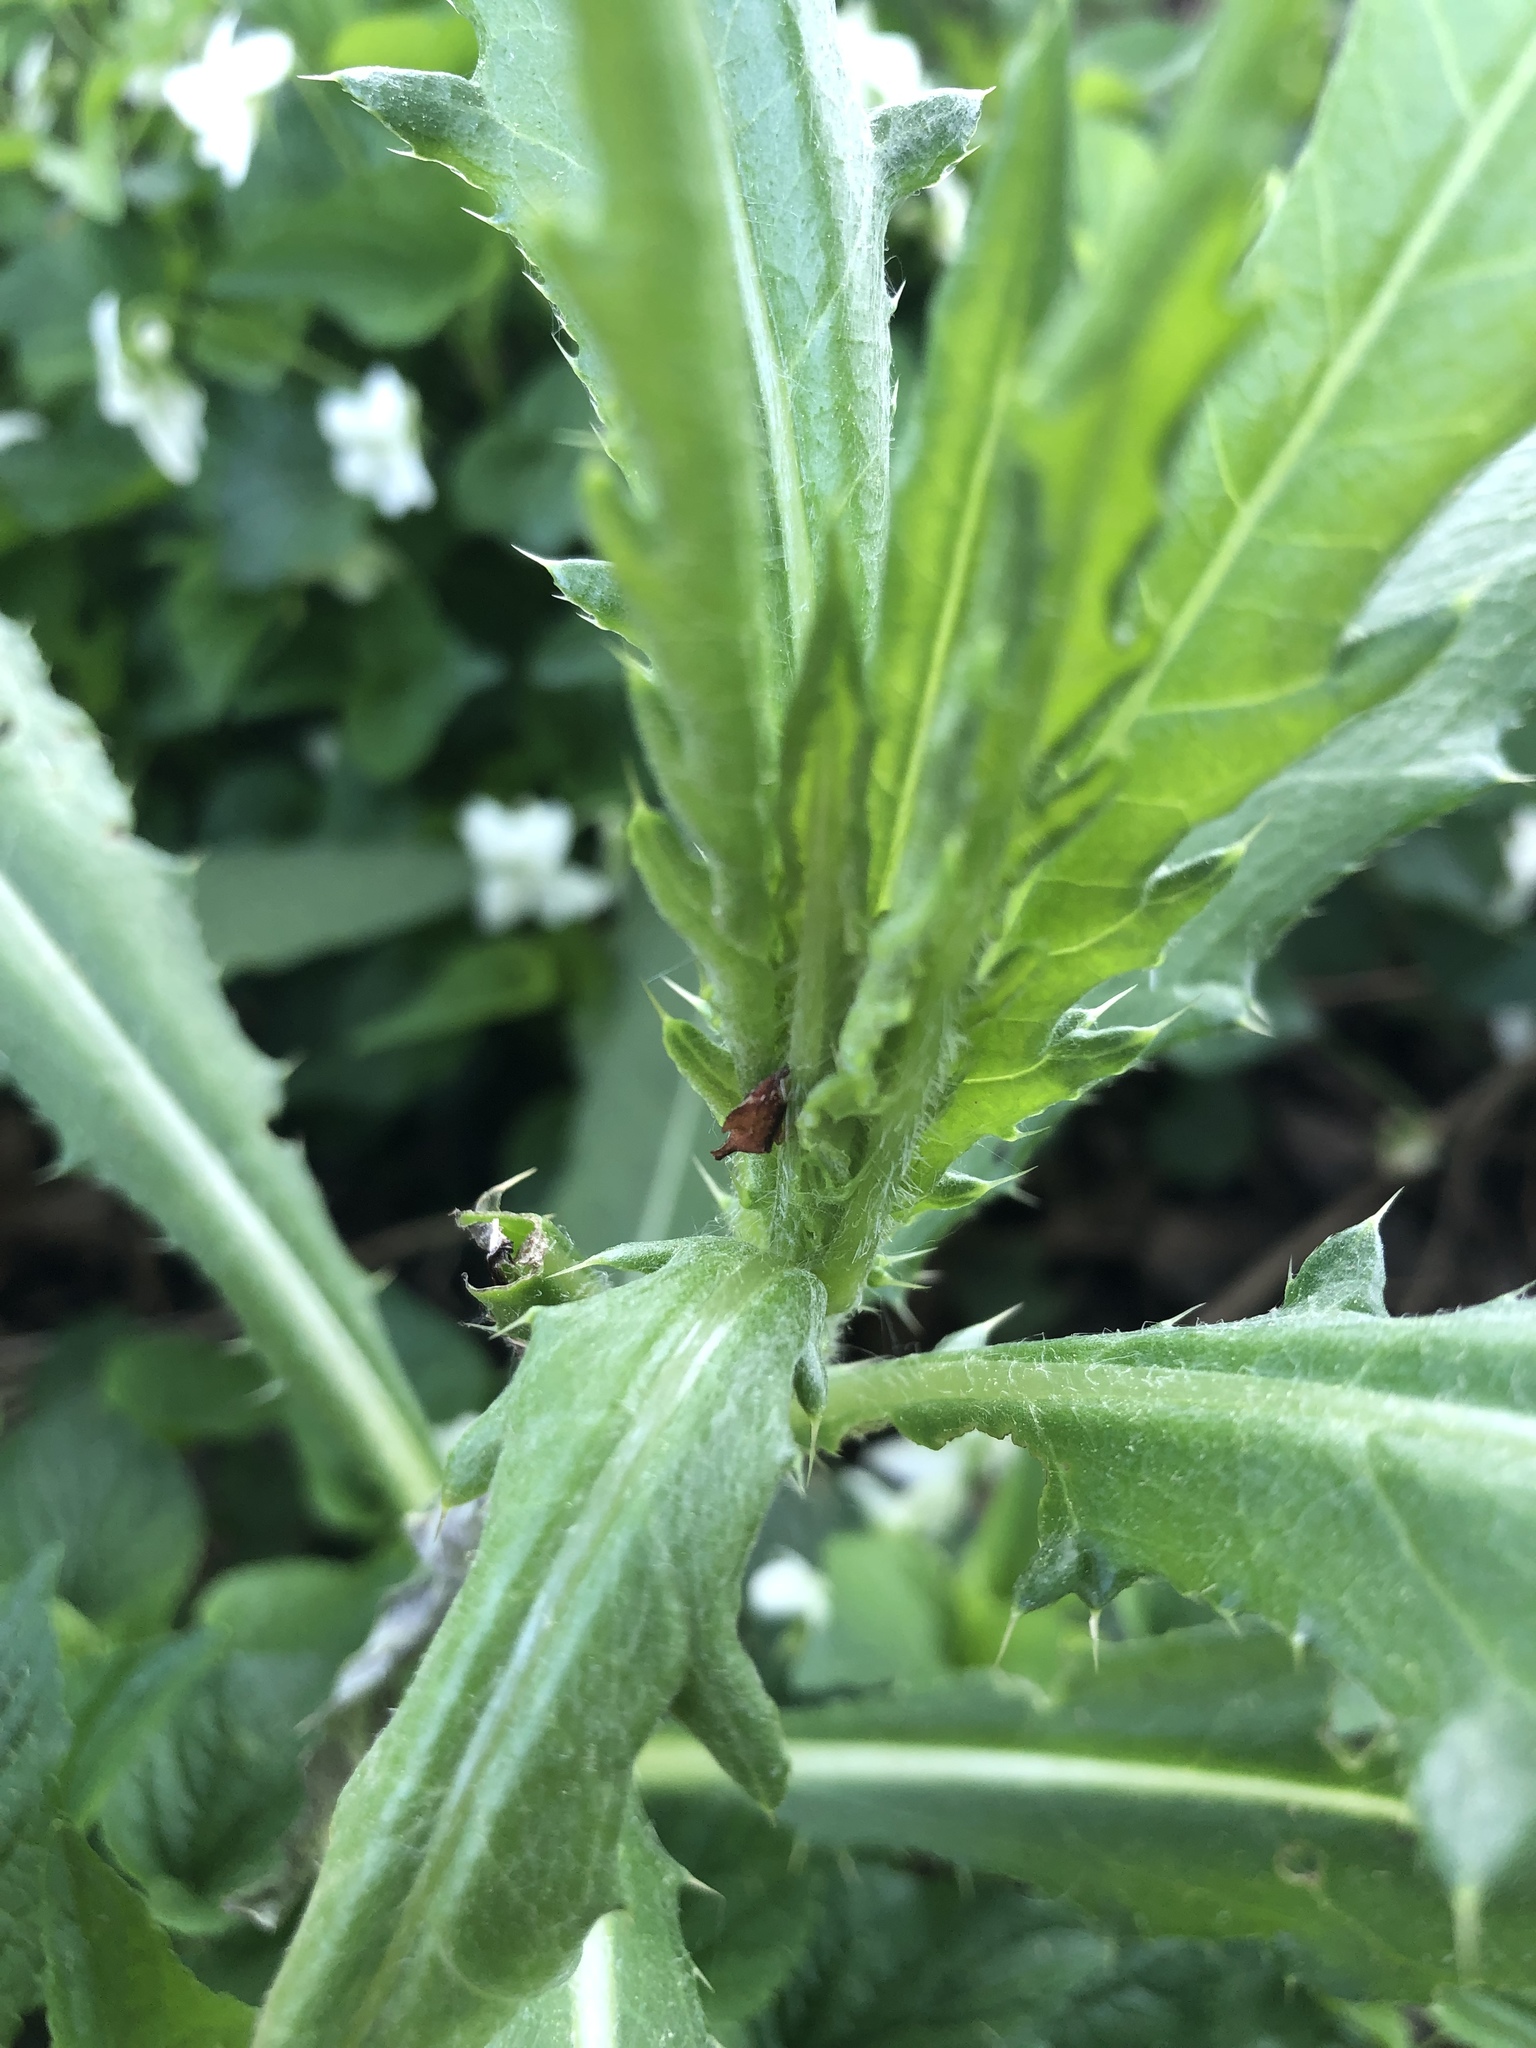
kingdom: Animalia
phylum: Arthropoda
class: Insecta
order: Hemiptera
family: Membracidae
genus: Entylia
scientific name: Entylia carinata
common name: Keeled treehopper
